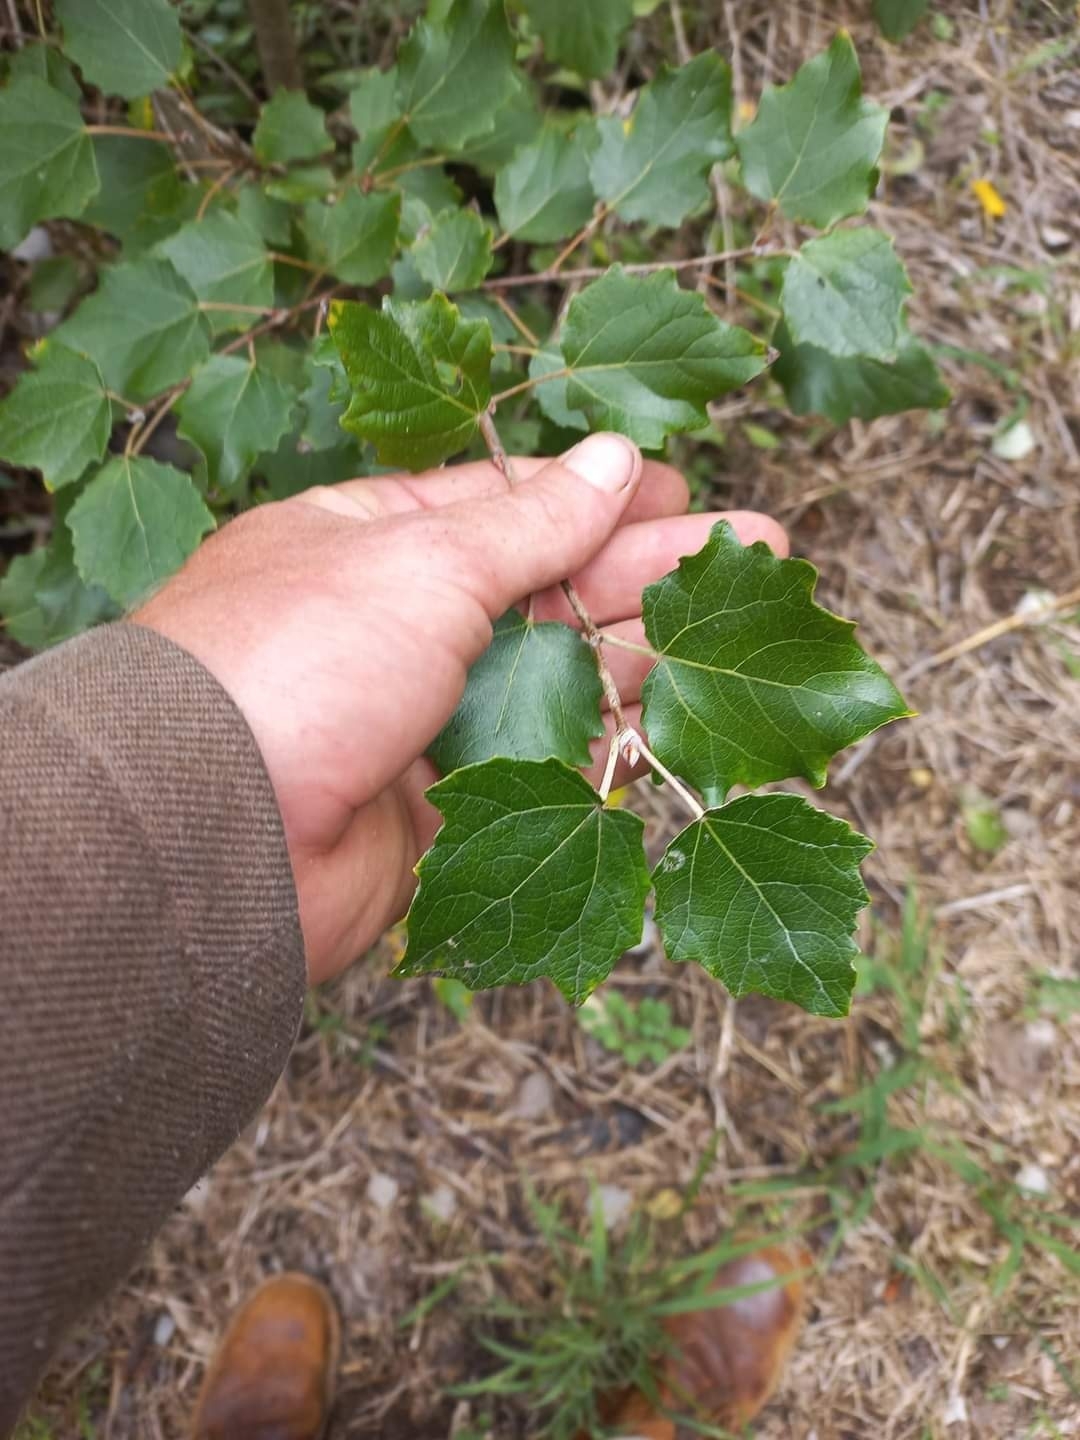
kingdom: Plantae
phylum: Tracheophyta
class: Magnoliopsida
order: Malpighiales
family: Salicaceae
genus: Populus
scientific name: Populus tremula
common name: European aspen
